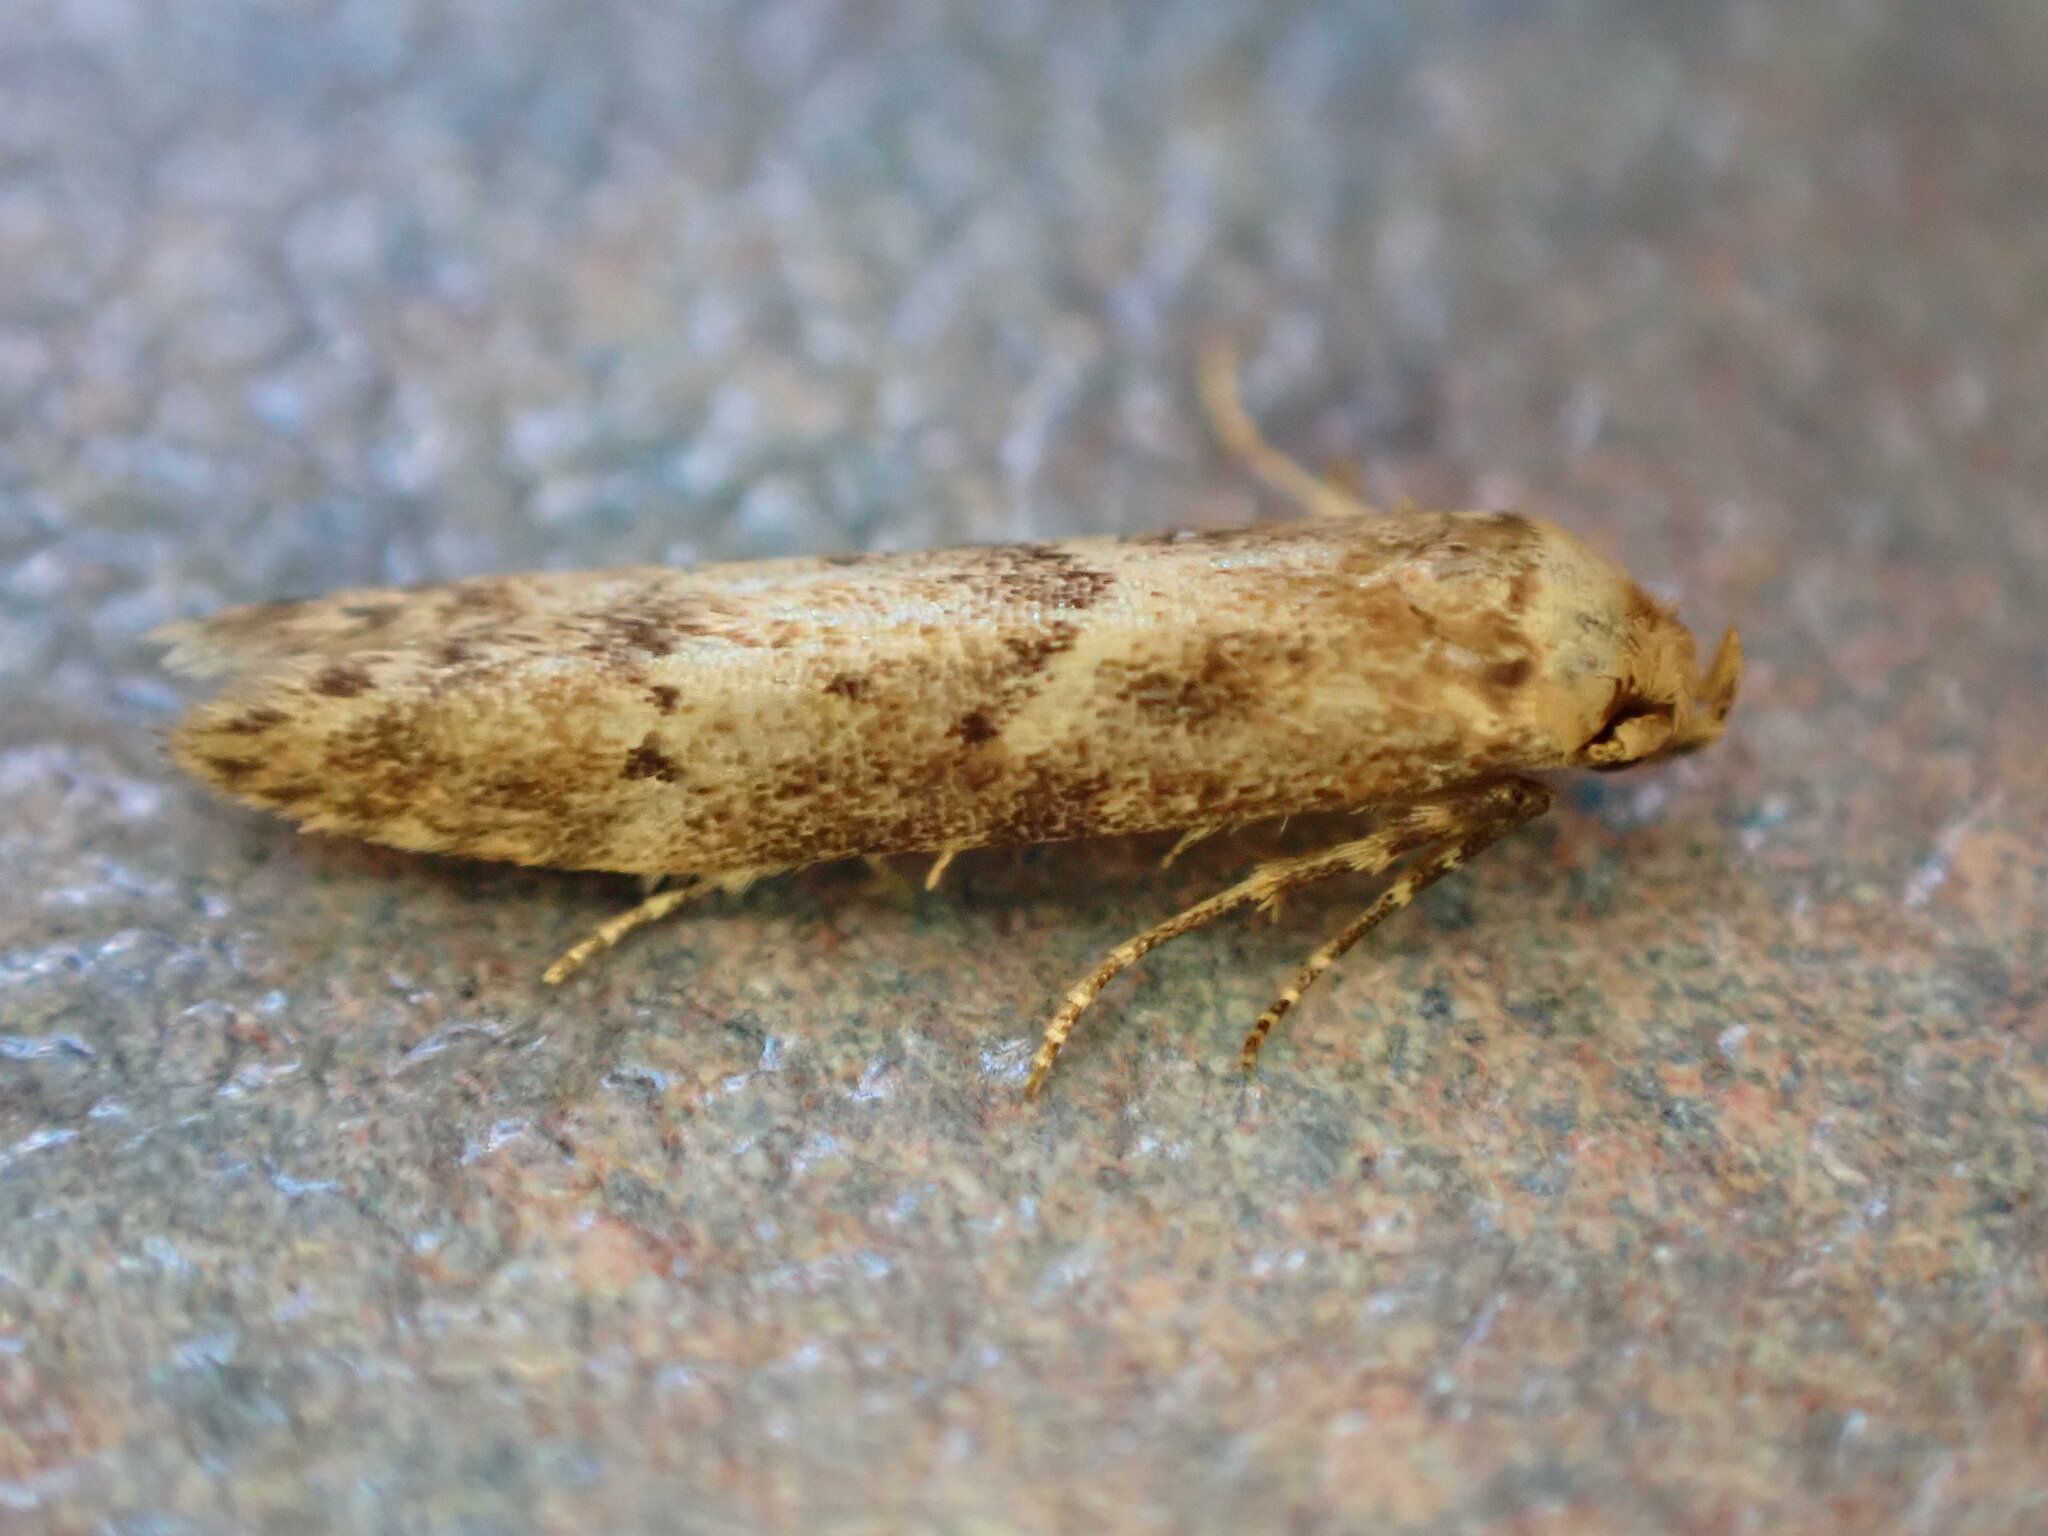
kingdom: Animalia
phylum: Arthropoda
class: Insecta
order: Lepidoptera
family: Blastobasidae
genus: Blastobasis
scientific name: Blastobasis adustella
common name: Dingy dowd
